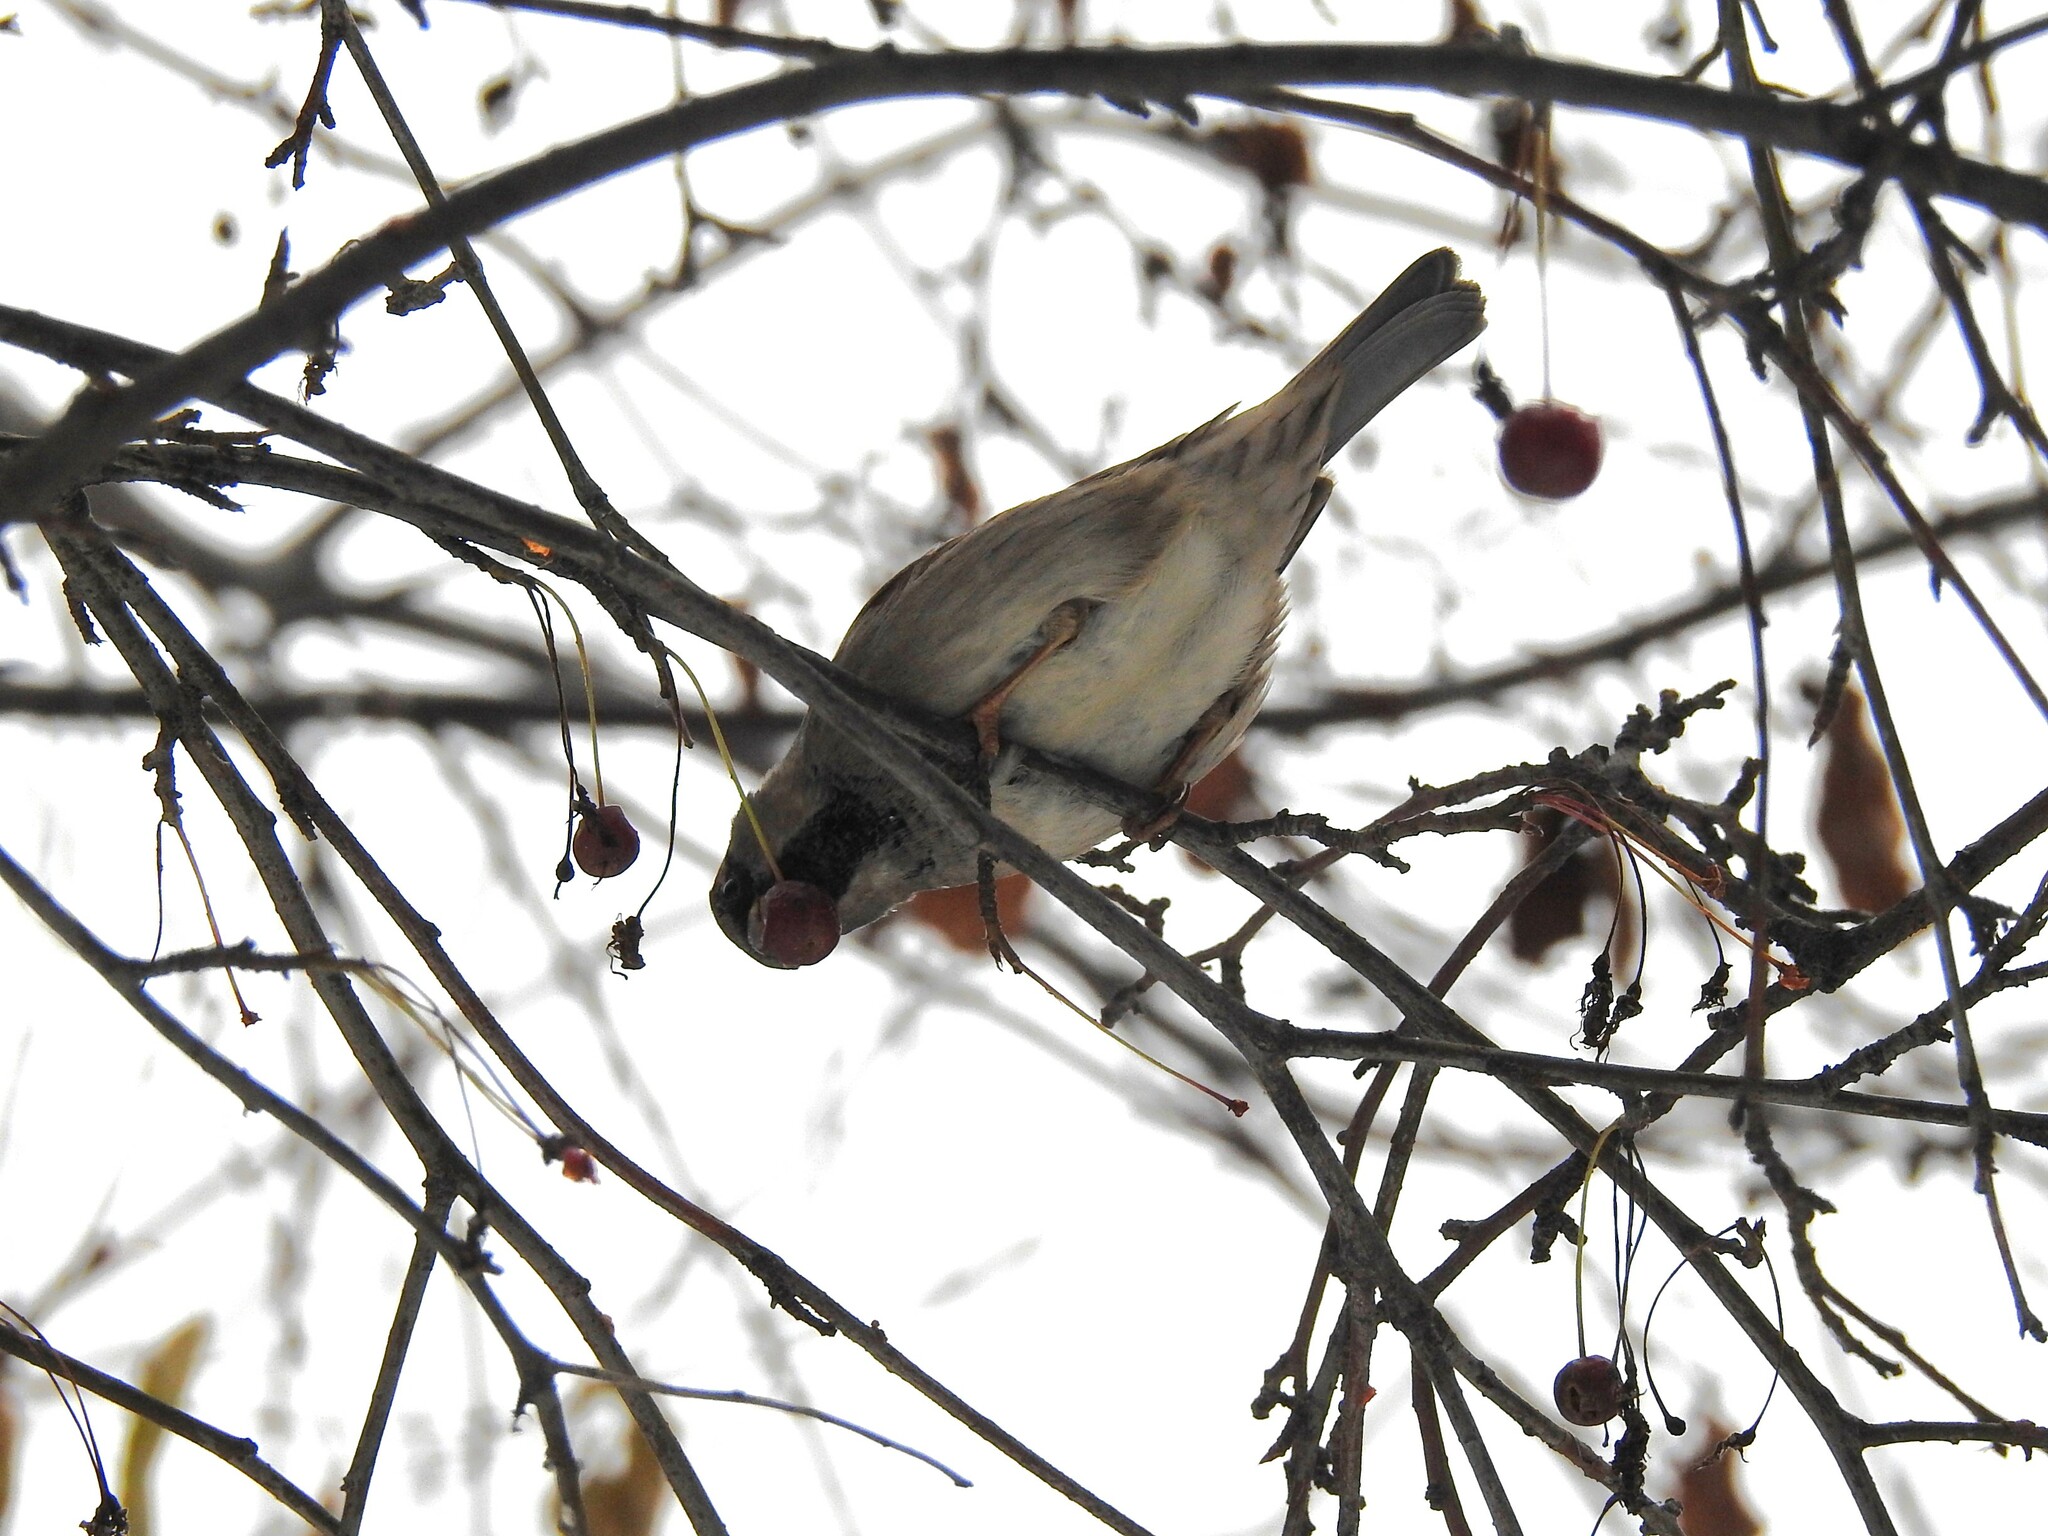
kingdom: Animalia
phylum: Chordata
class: Aves
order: Passeriformes
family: Passeridae
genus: Passer
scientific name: Passer domesticus
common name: House sparrow
